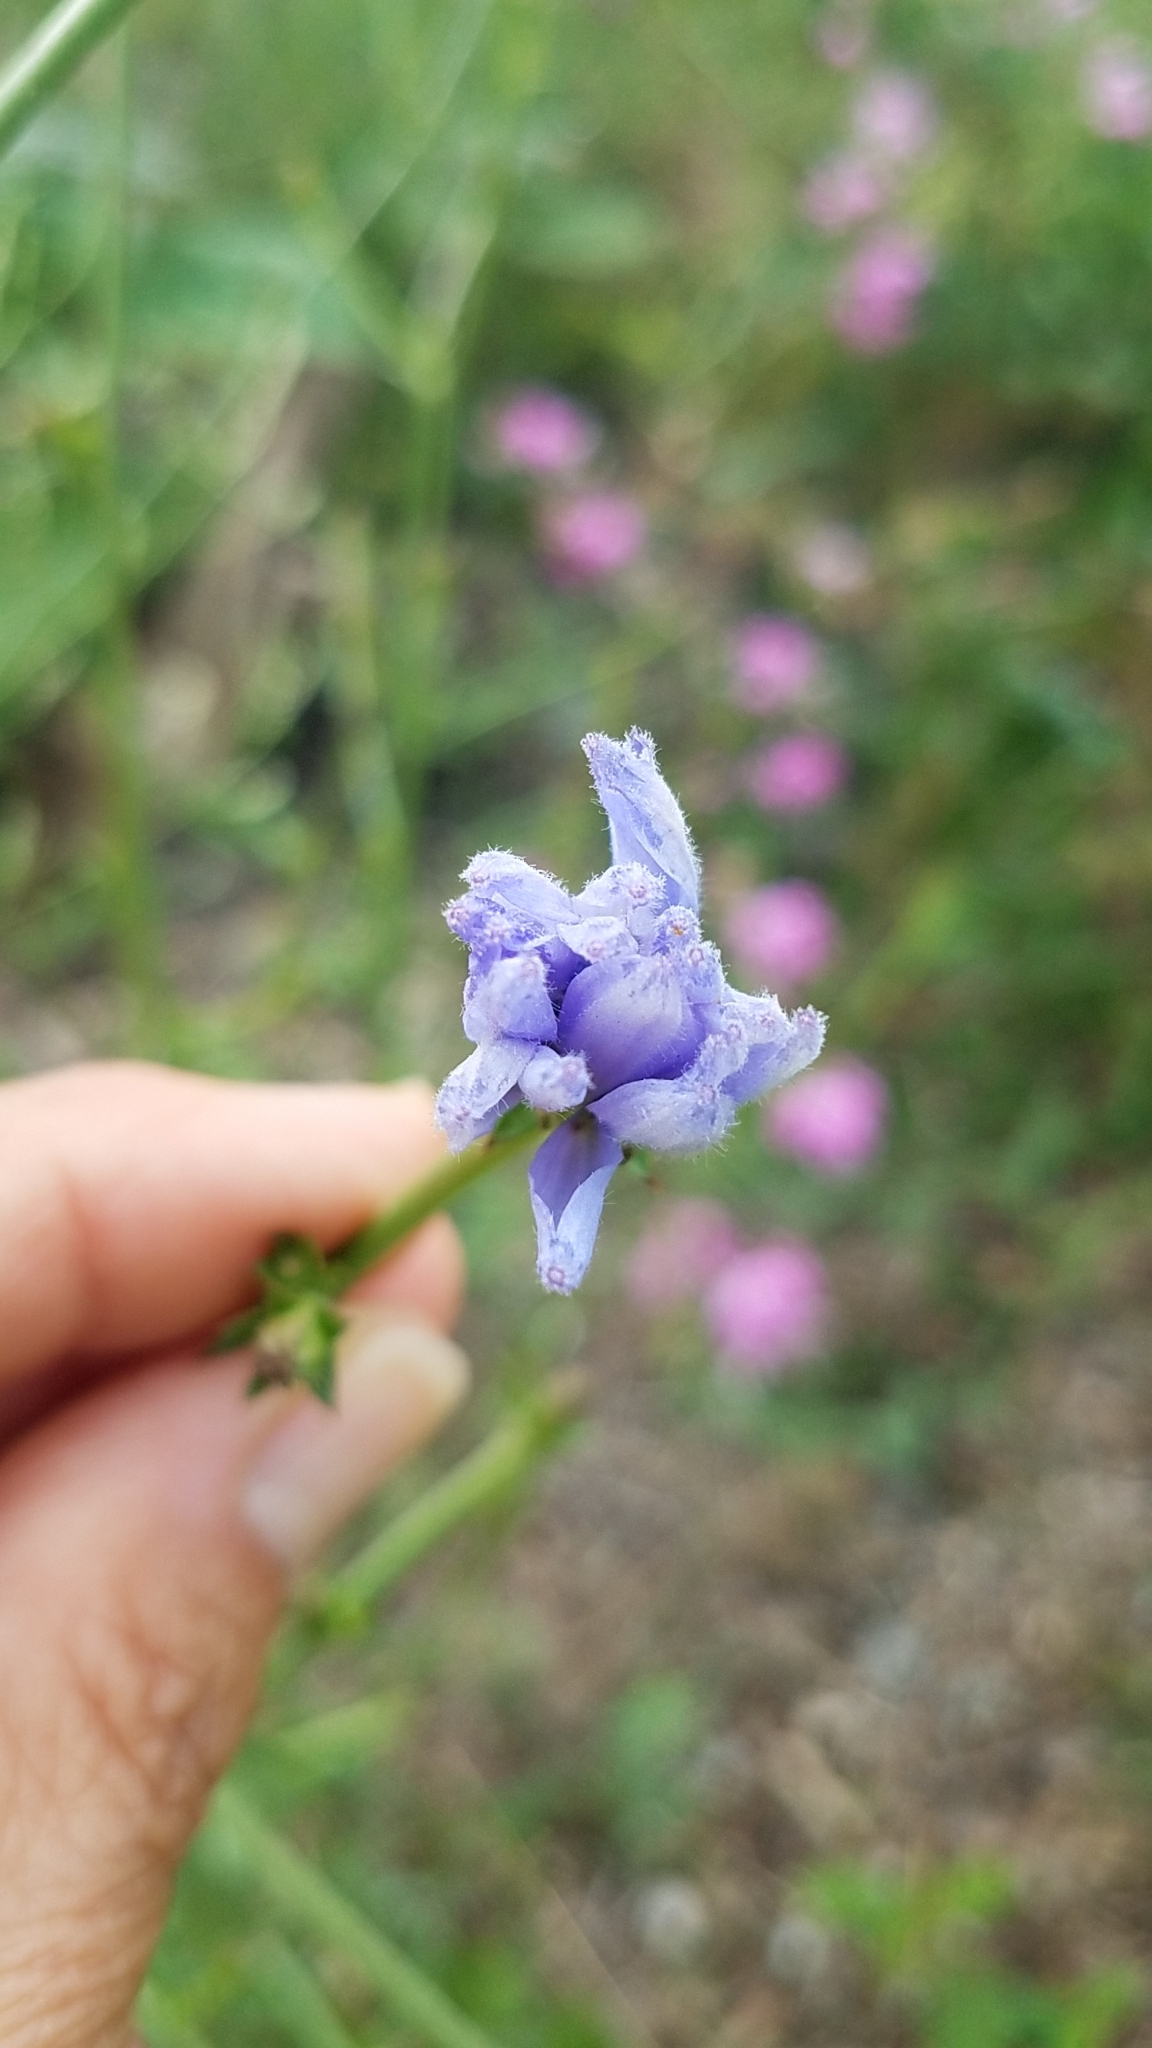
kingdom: Plantae
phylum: Tracheophyta
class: Magnoliopsida
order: Asterales
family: Asteraceae
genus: Cichorium
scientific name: Cichorium intybus
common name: Chicory
